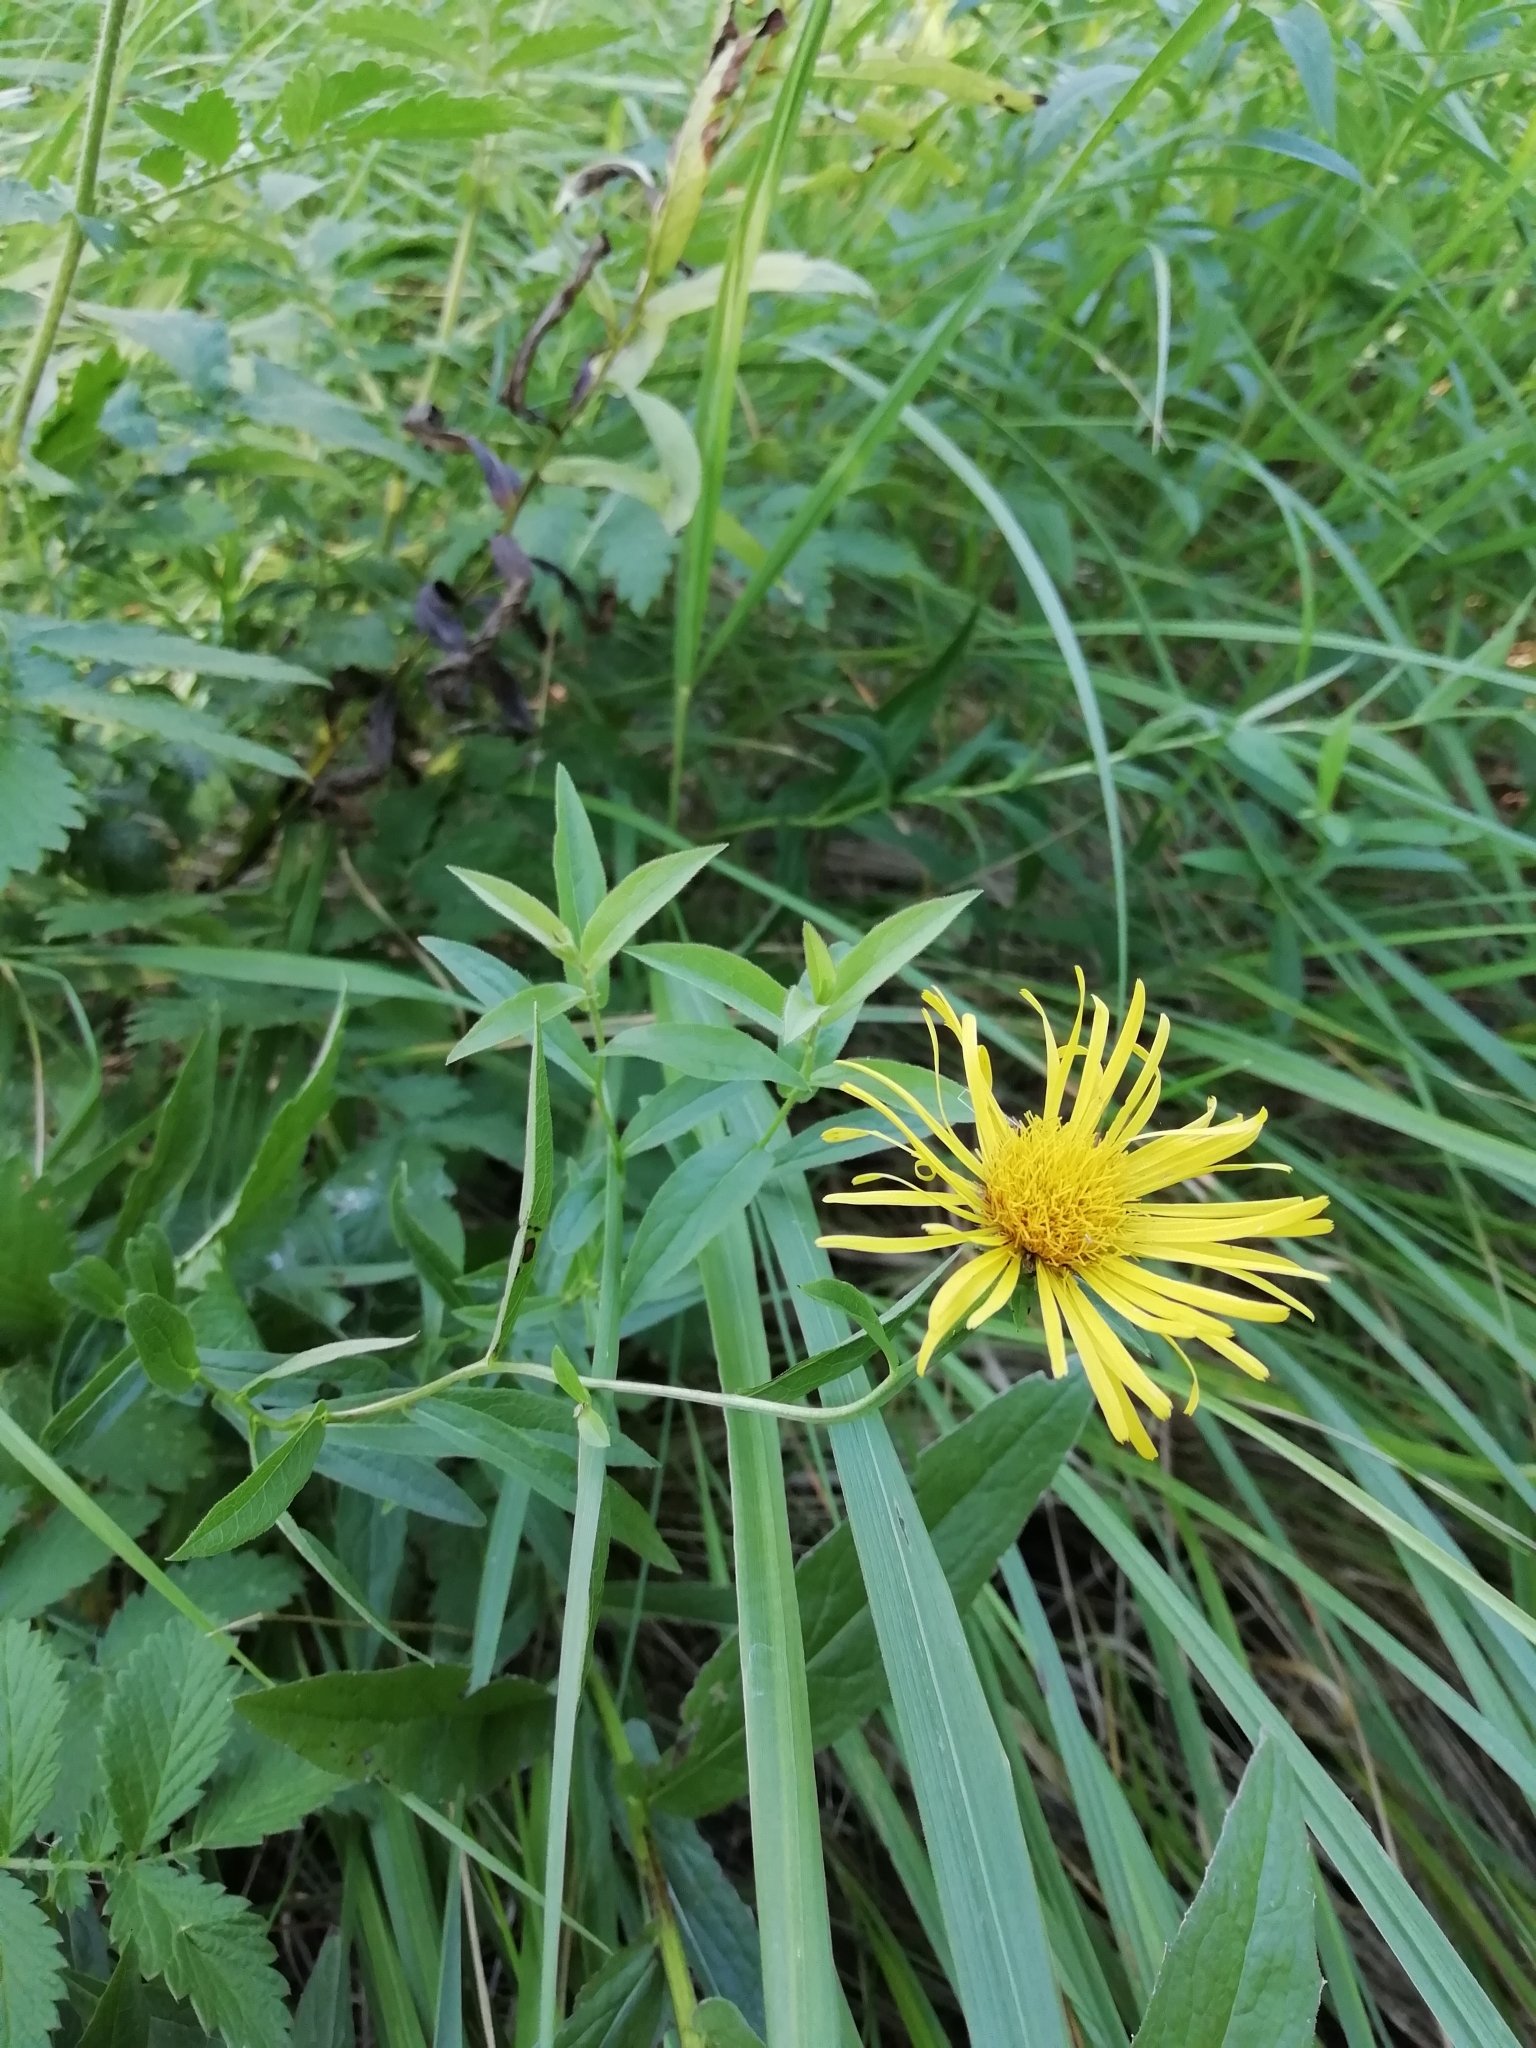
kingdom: Plantae
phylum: Tracheophyta
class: Magnoliopsida
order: Asterales
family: Asteraceae
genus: Pentanema
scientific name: Pentanema salicinum
